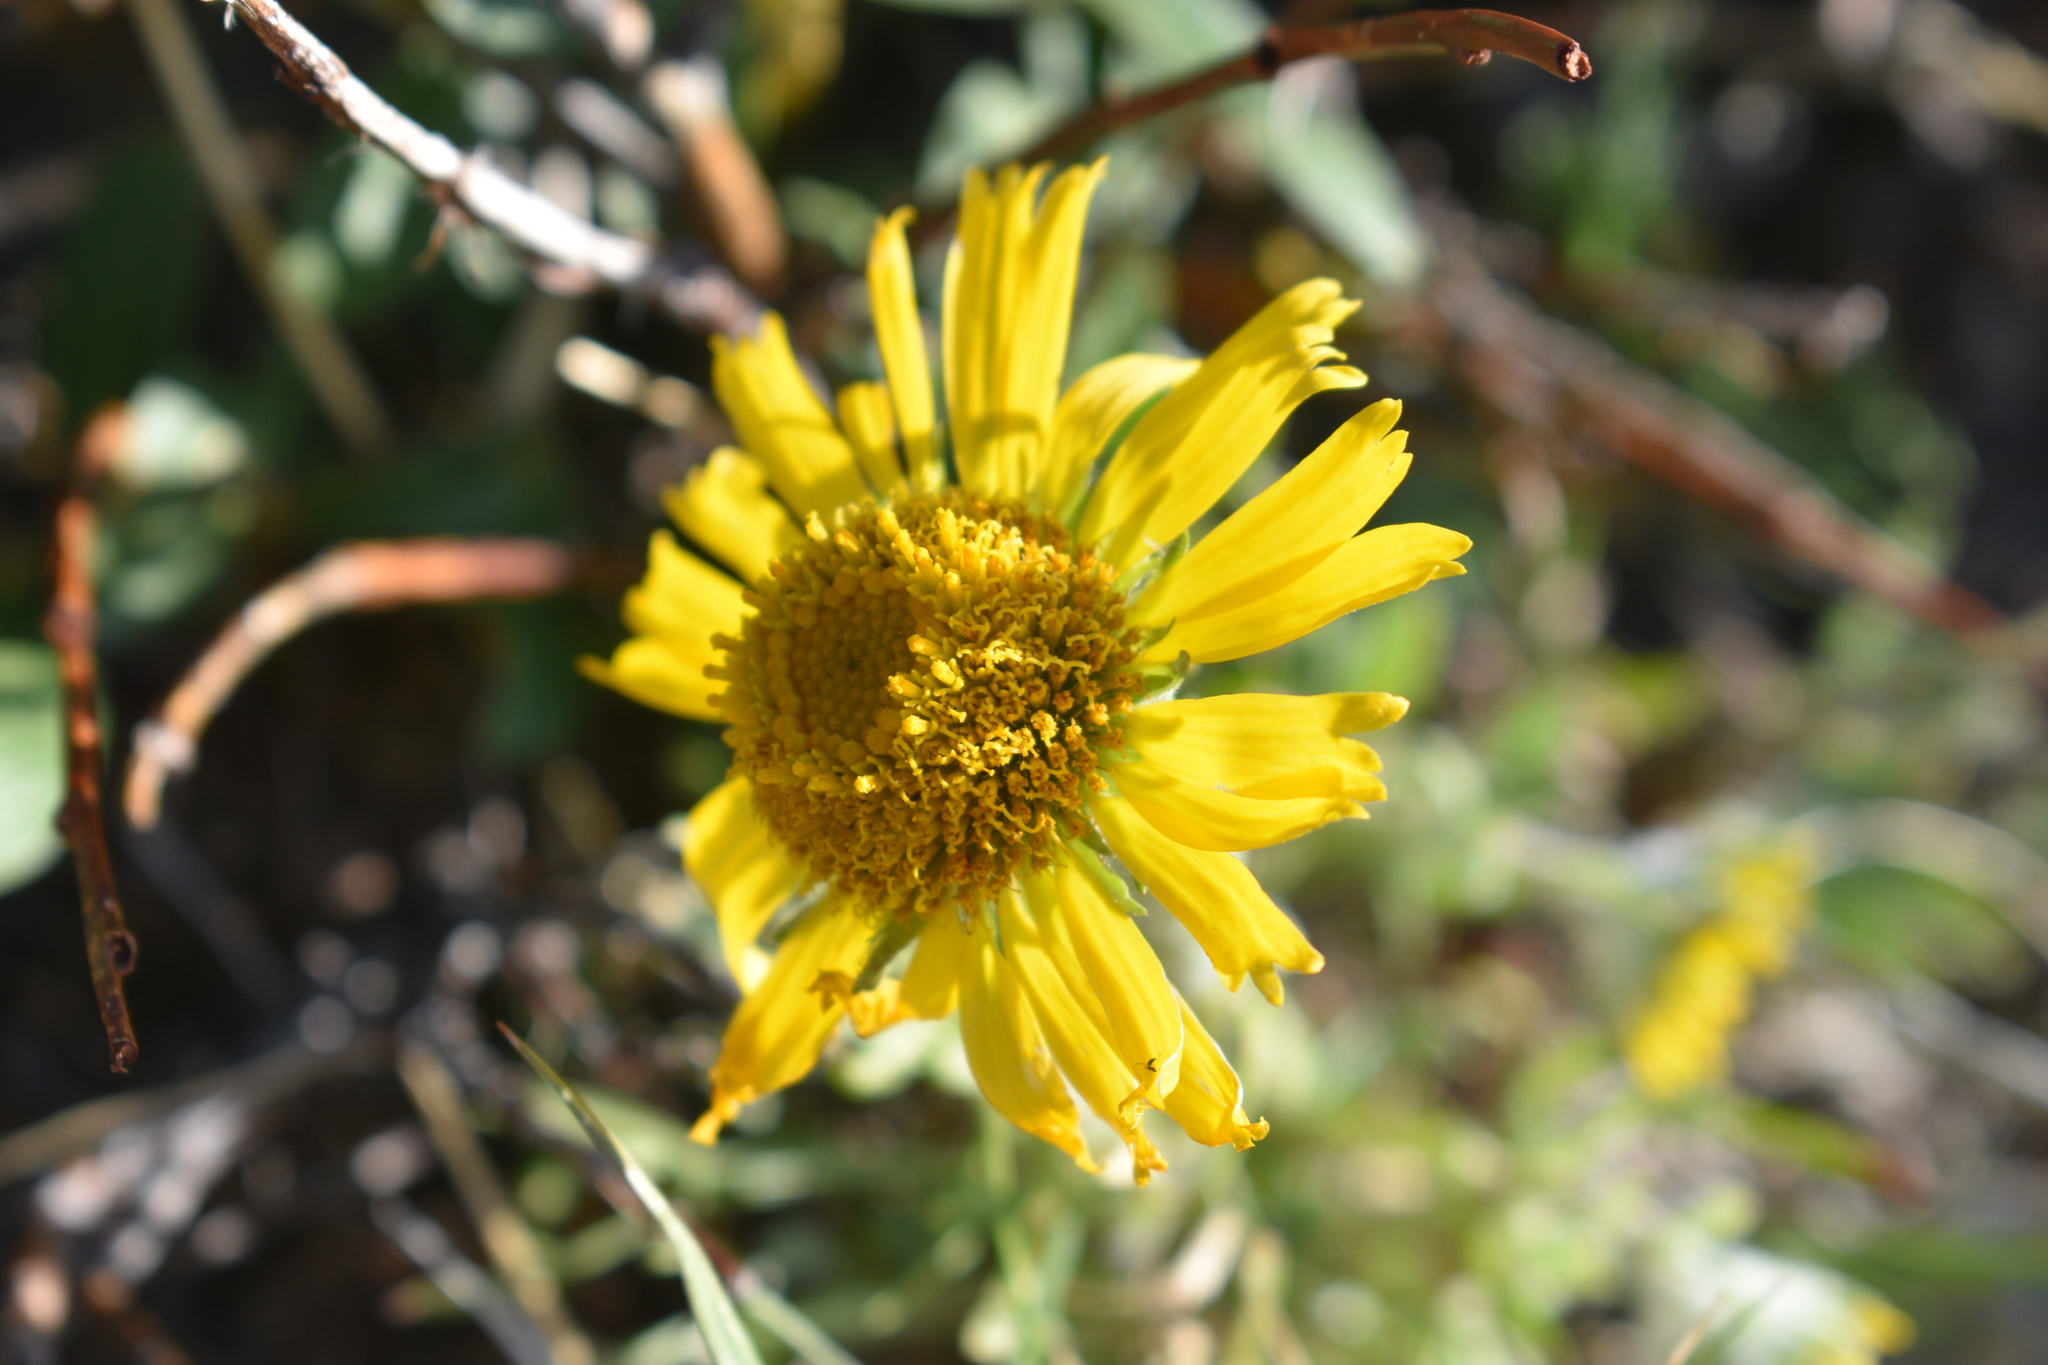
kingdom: Plantae
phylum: Tracheophyta
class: Magnoliopsida
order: Asterales
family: Asteraceae
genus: Hymenoxys
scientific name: Hymenoxys grandiflora
